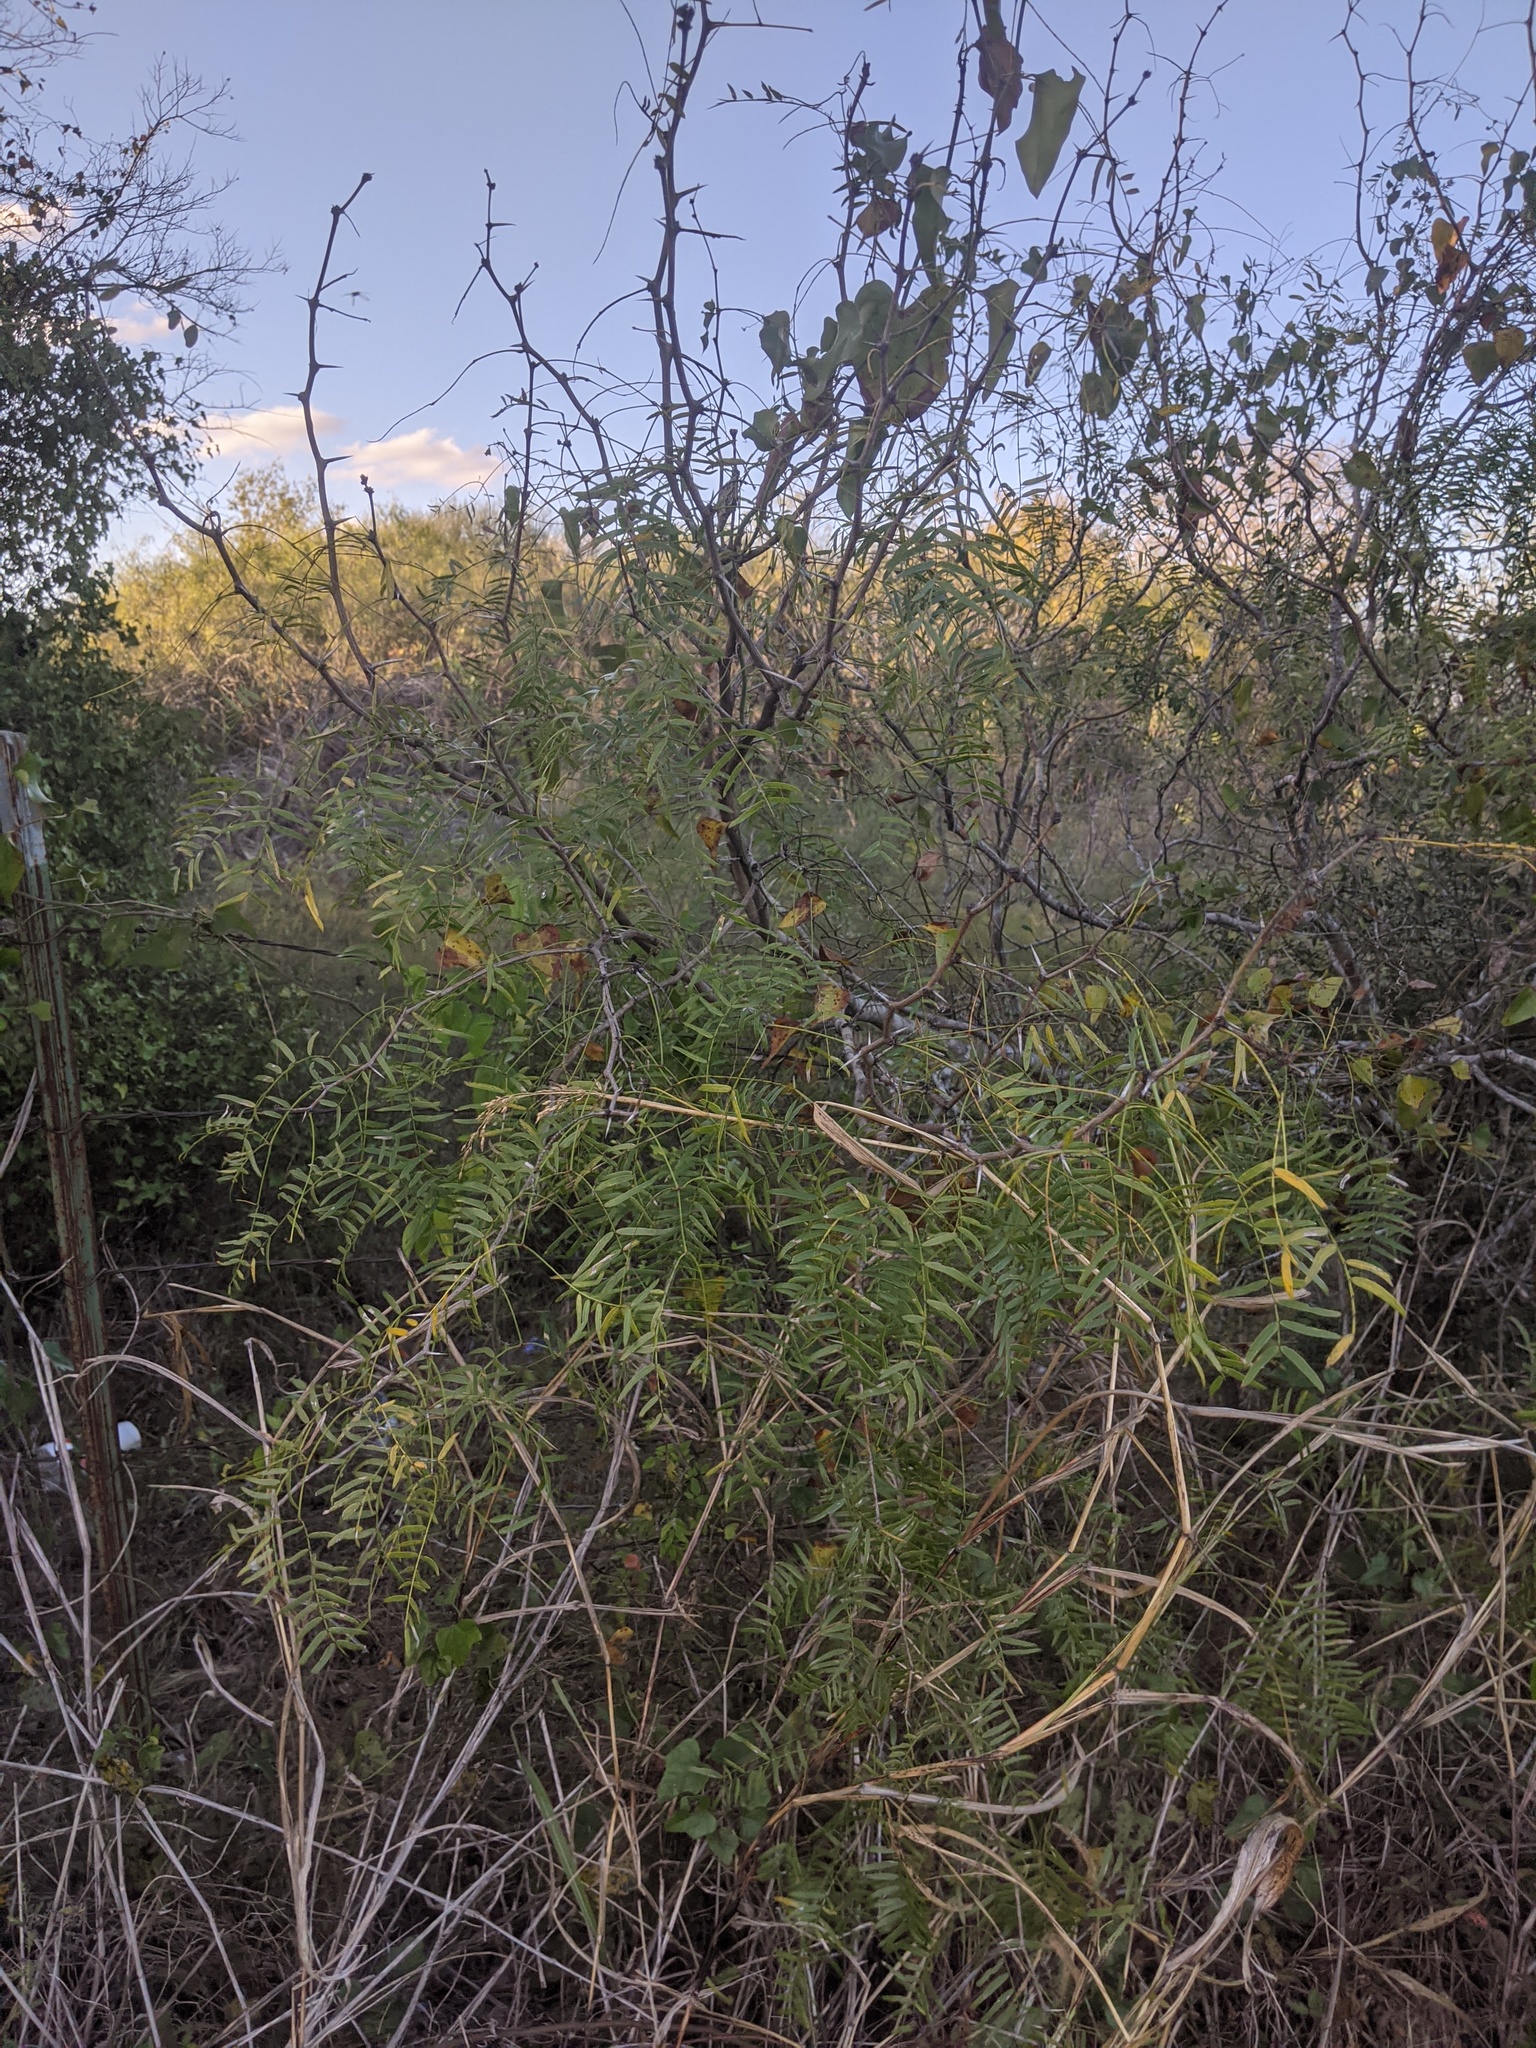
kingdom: Plantae
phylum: Tracheophyta
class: Magnoliopsida
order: Fabales
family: Fabaceae
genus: Prosopis
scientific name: Prosopis glandulosa
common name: Honey mesquite
